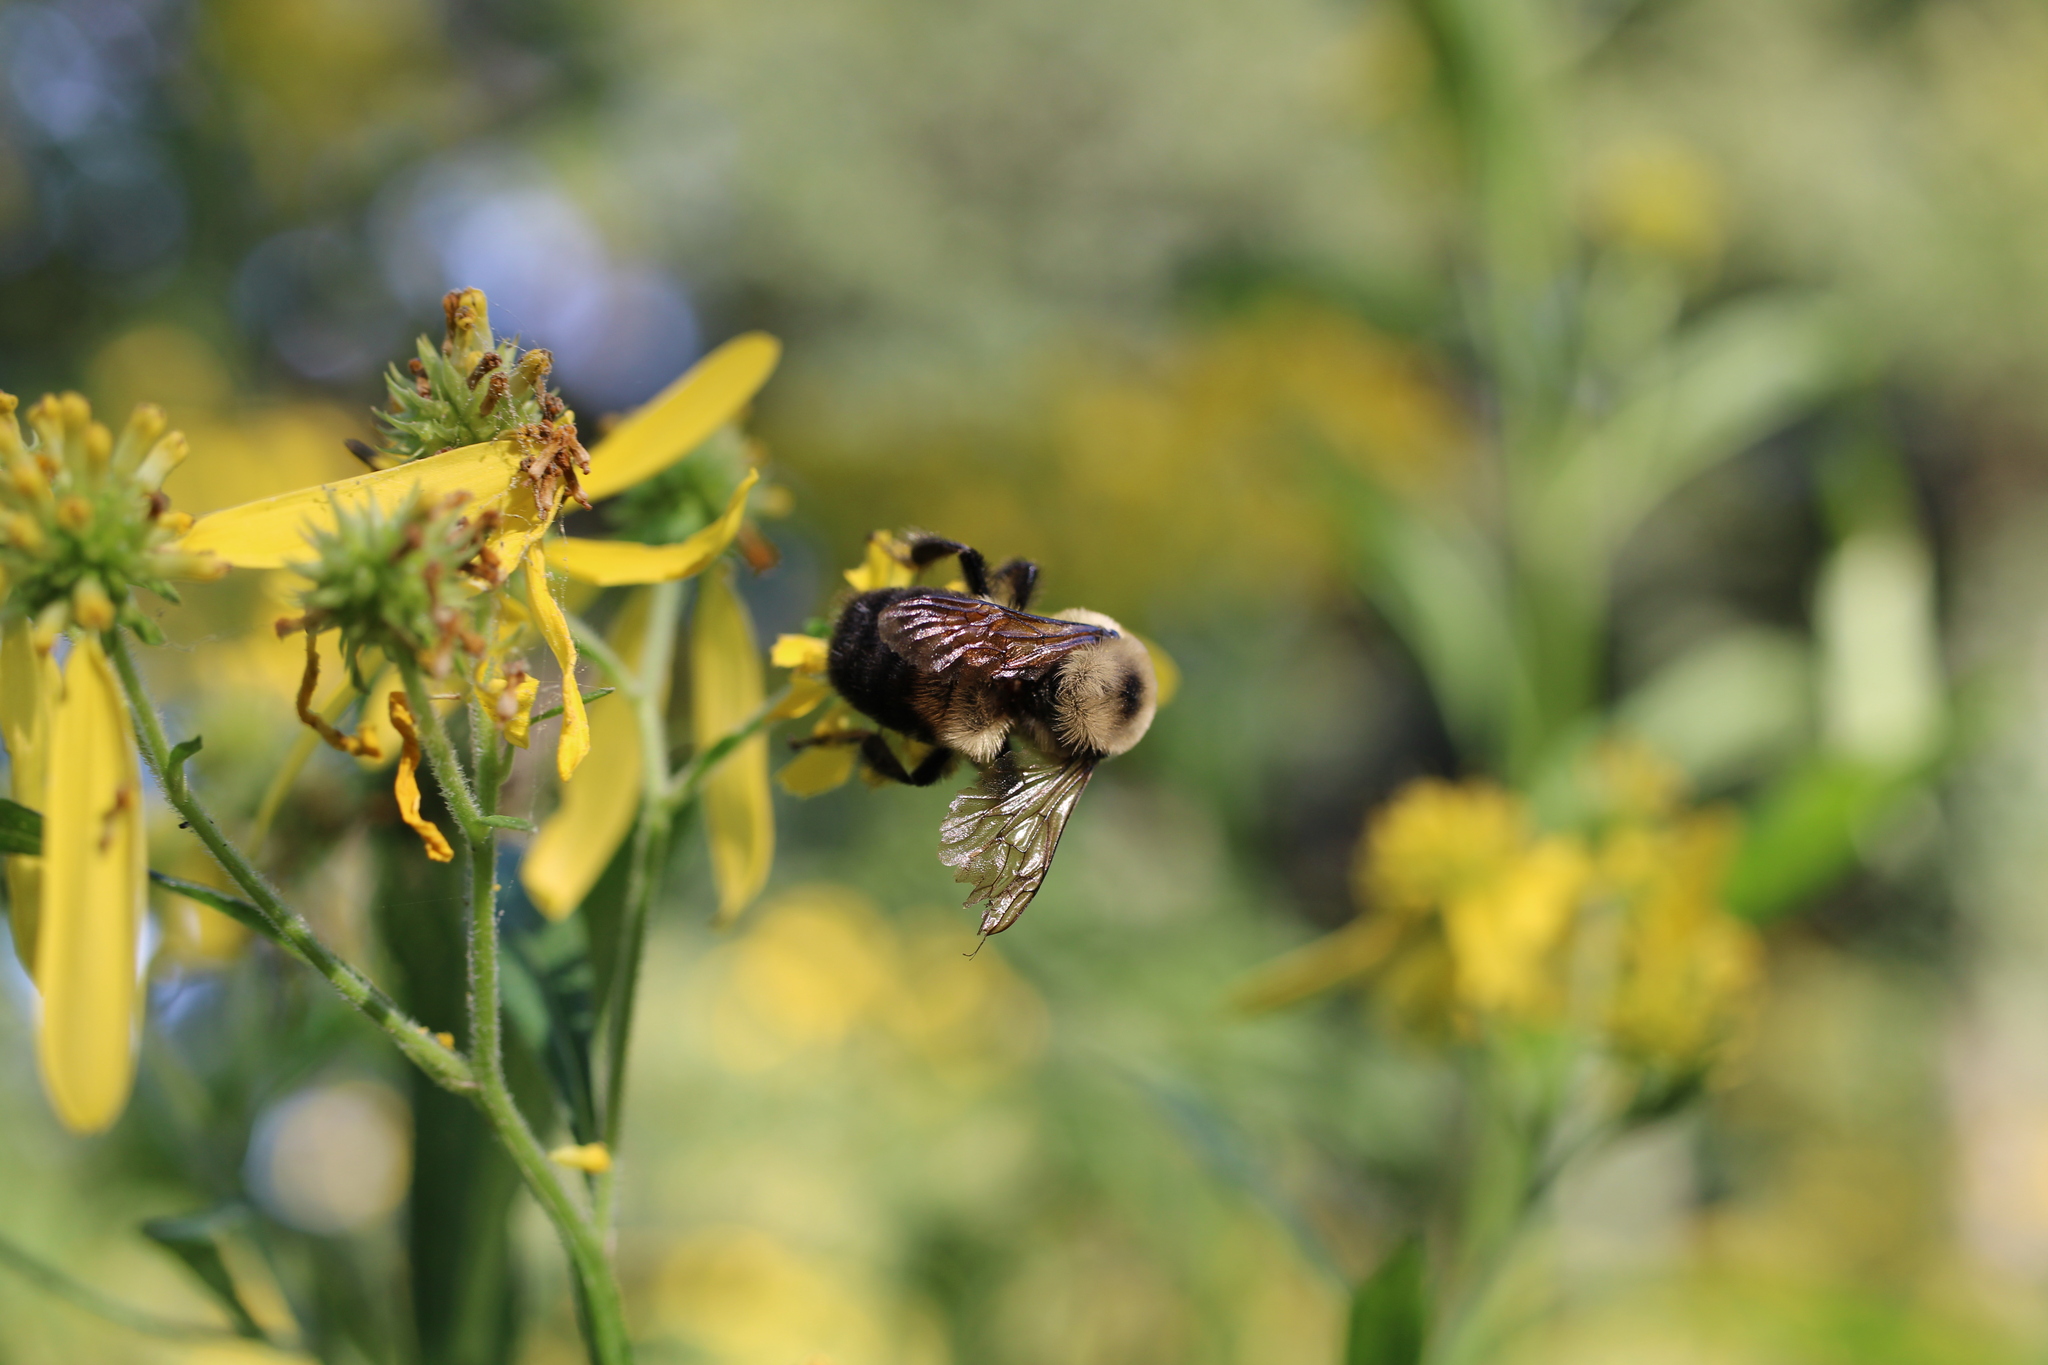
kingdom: Animalia
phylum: Arthropoda
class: Insecta
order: Hymenoptera
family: Apidae
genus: Bombus
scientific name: Bombus griseocollis
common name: Brown-belted bumble bee
